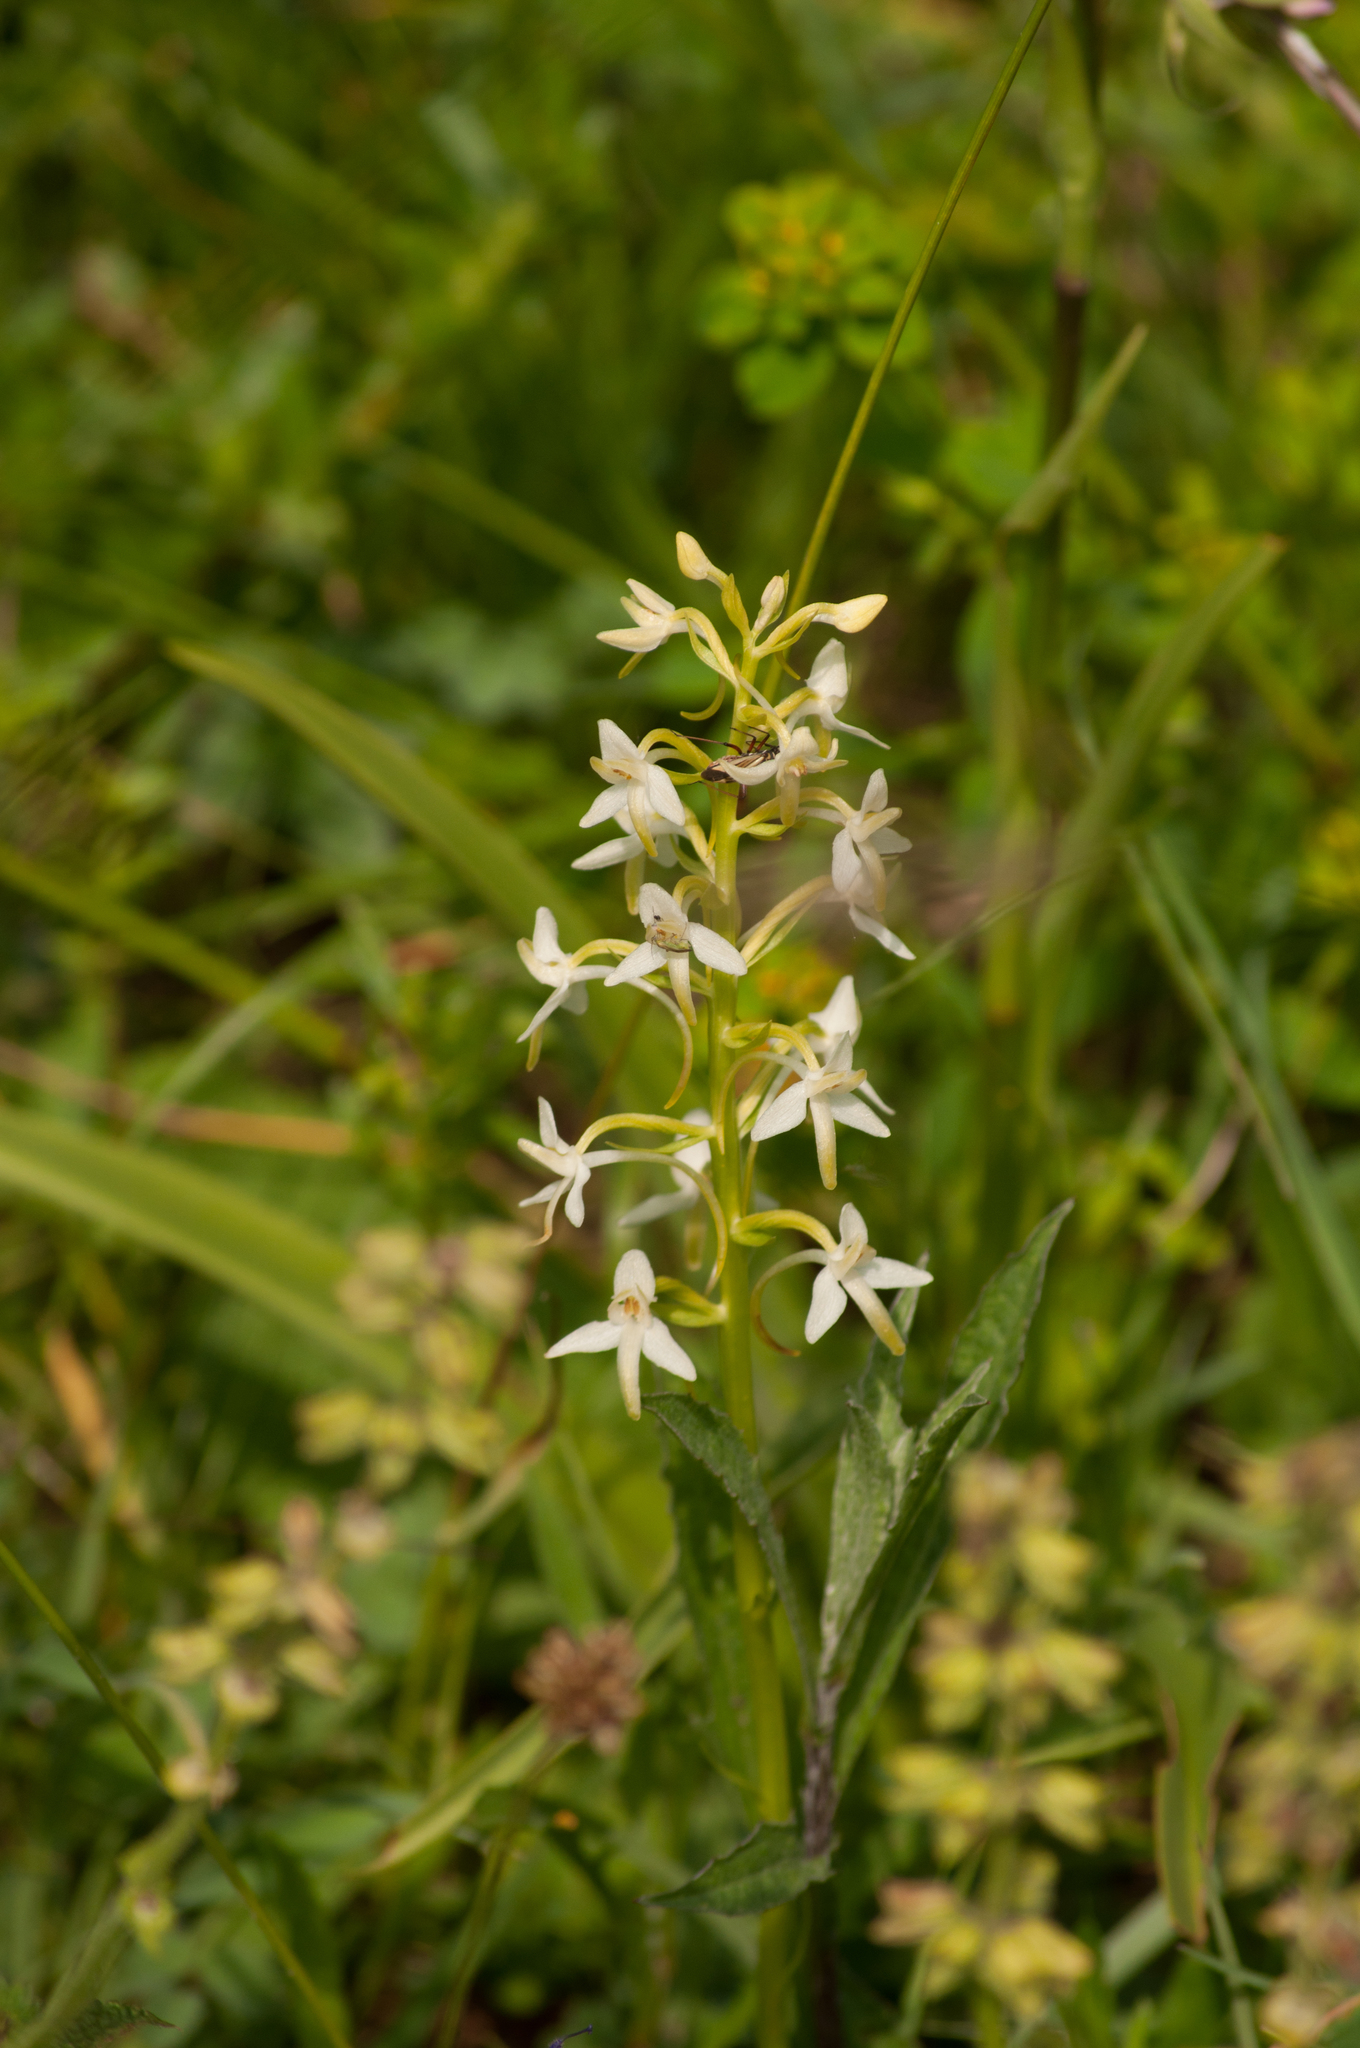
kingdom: Plantae
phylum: Tracheophyta
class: Liliopsida
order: Asparagales
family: Orchidaceae
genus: Platanthera
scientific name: Platanthera bifolia
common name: Lesser butterfly-orchid
